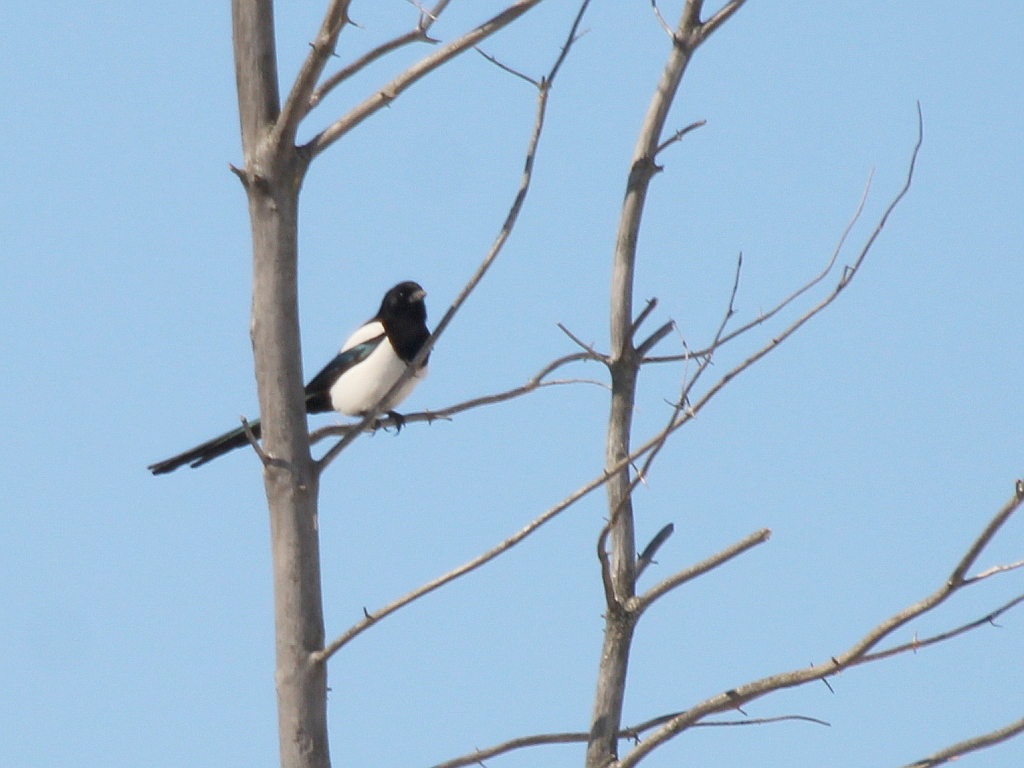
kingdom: Animalia
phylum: Chordata
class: Aves
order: Passeriformes
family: Corvidae
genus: Pica
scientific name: Pica pica
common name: Eurasian magpie
